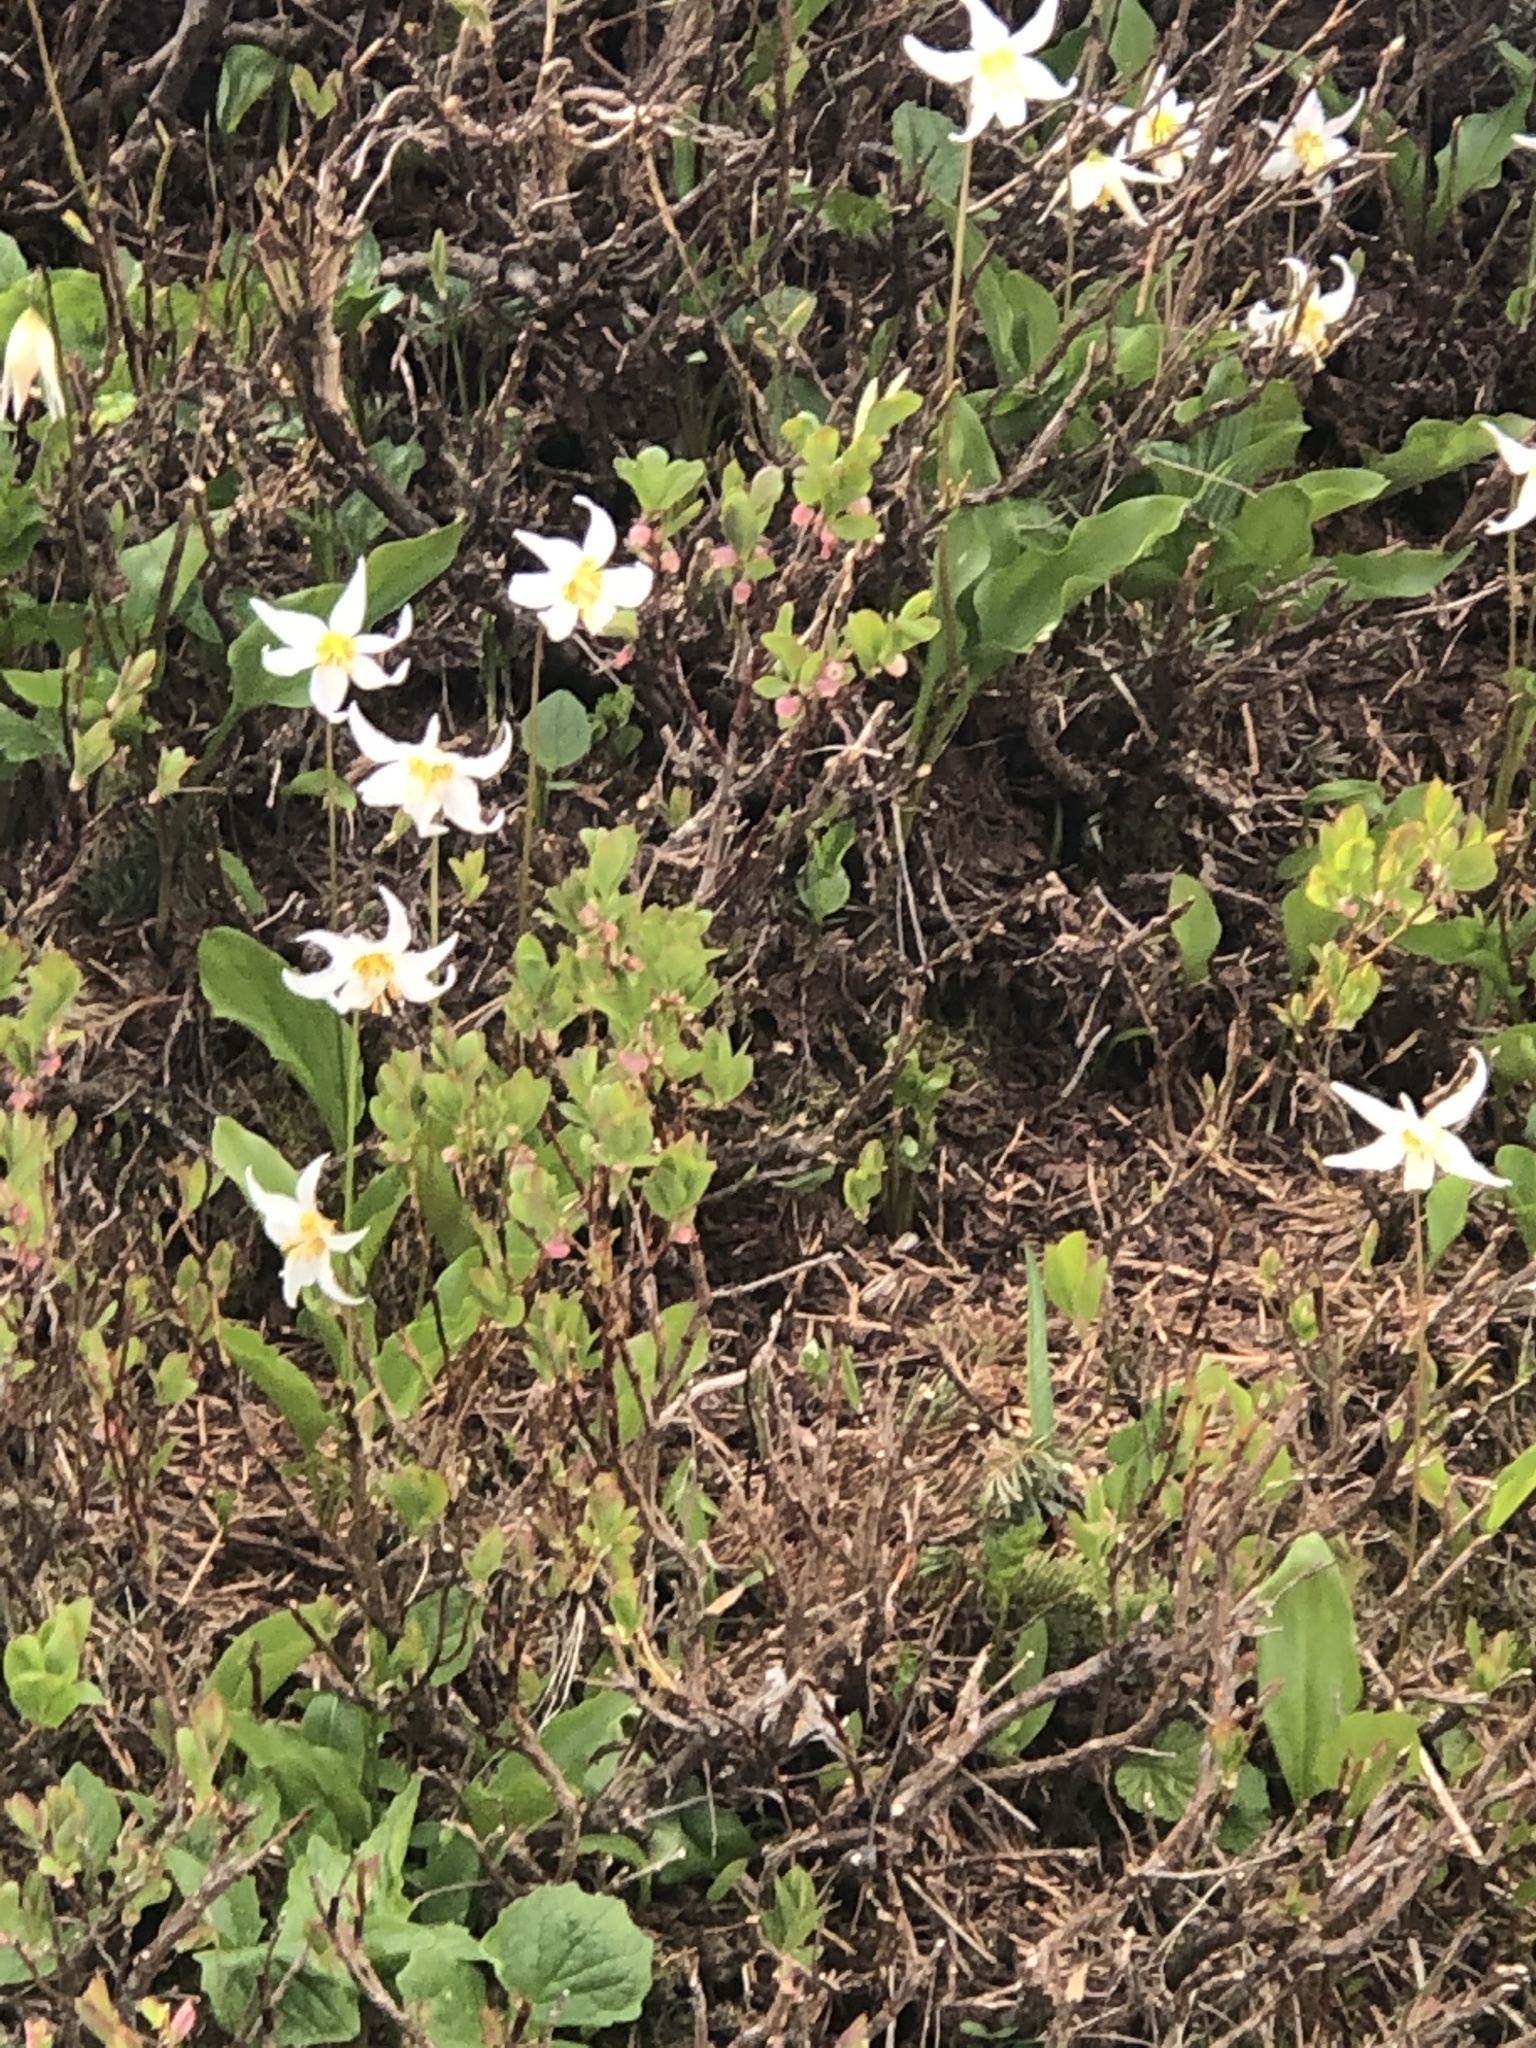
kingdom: Plantae
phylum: Tracheophyta
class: Liliopsida
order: Liliales
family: Liliaceae
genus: Erythronium
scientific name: Erythronium montanum
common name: Avalanche lily
